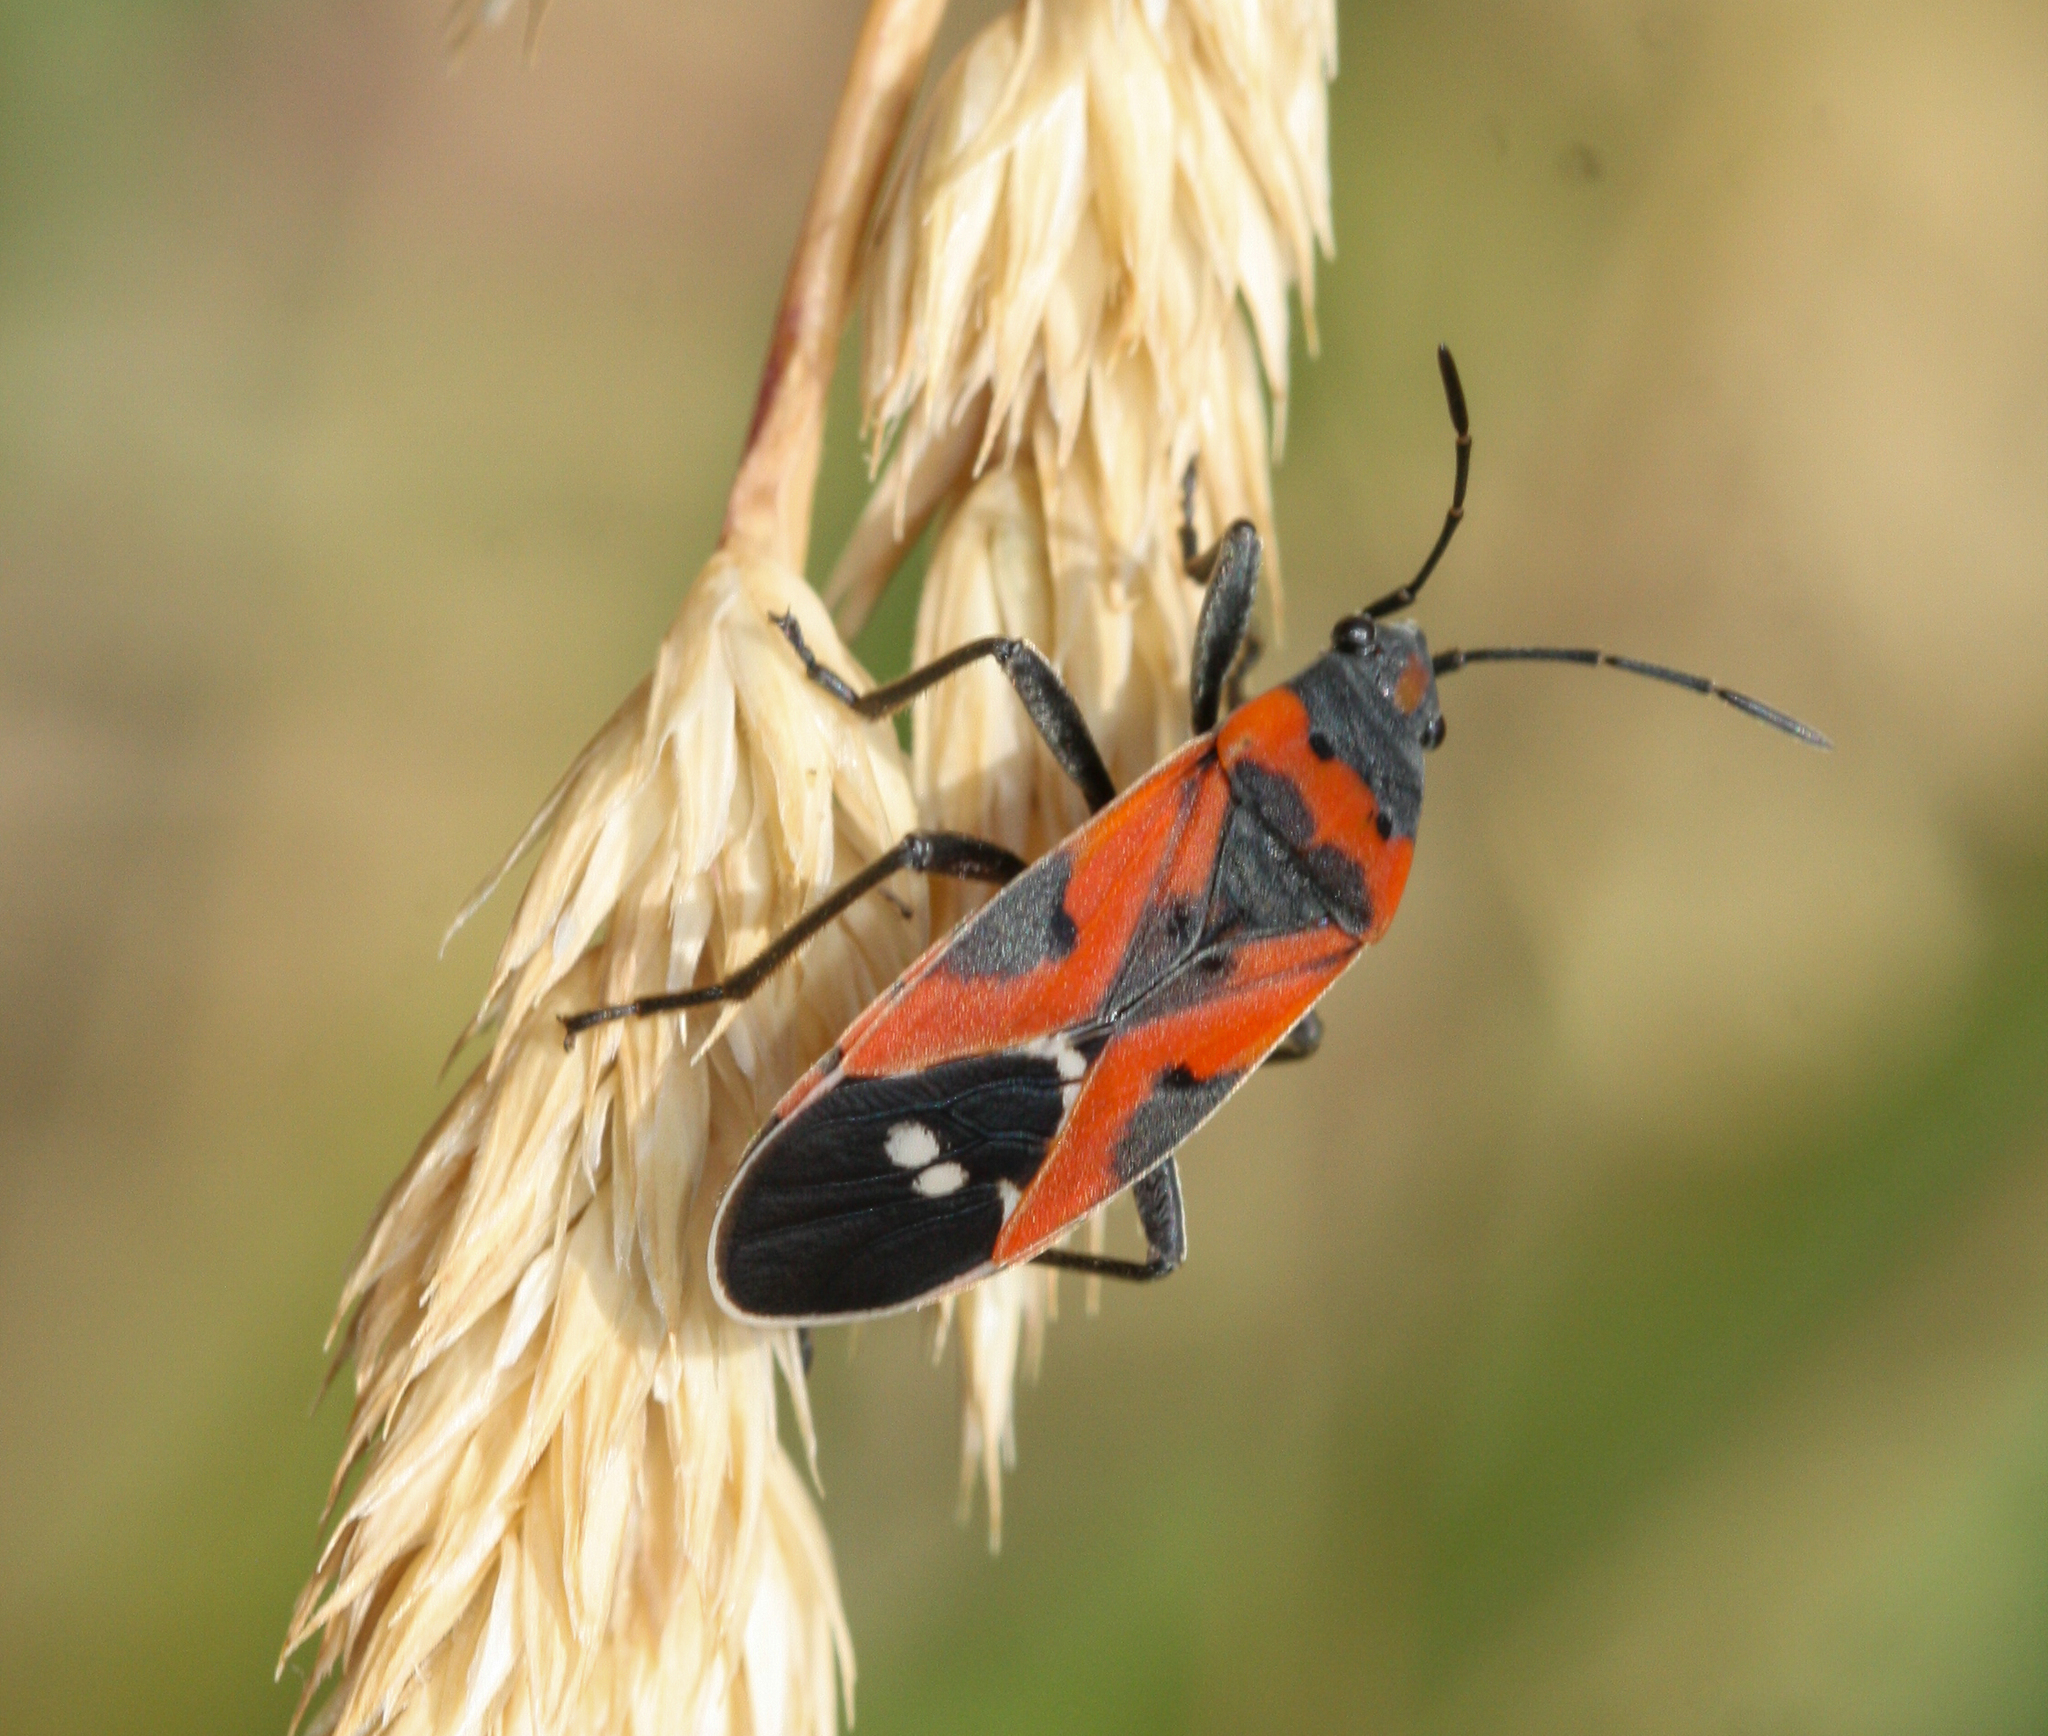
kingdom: Animalia
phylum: Arthropoda
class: Insecta
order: Hemiptera
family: Lygaeidae
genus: Lygaeus
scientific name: Lygaeus reclivatus
